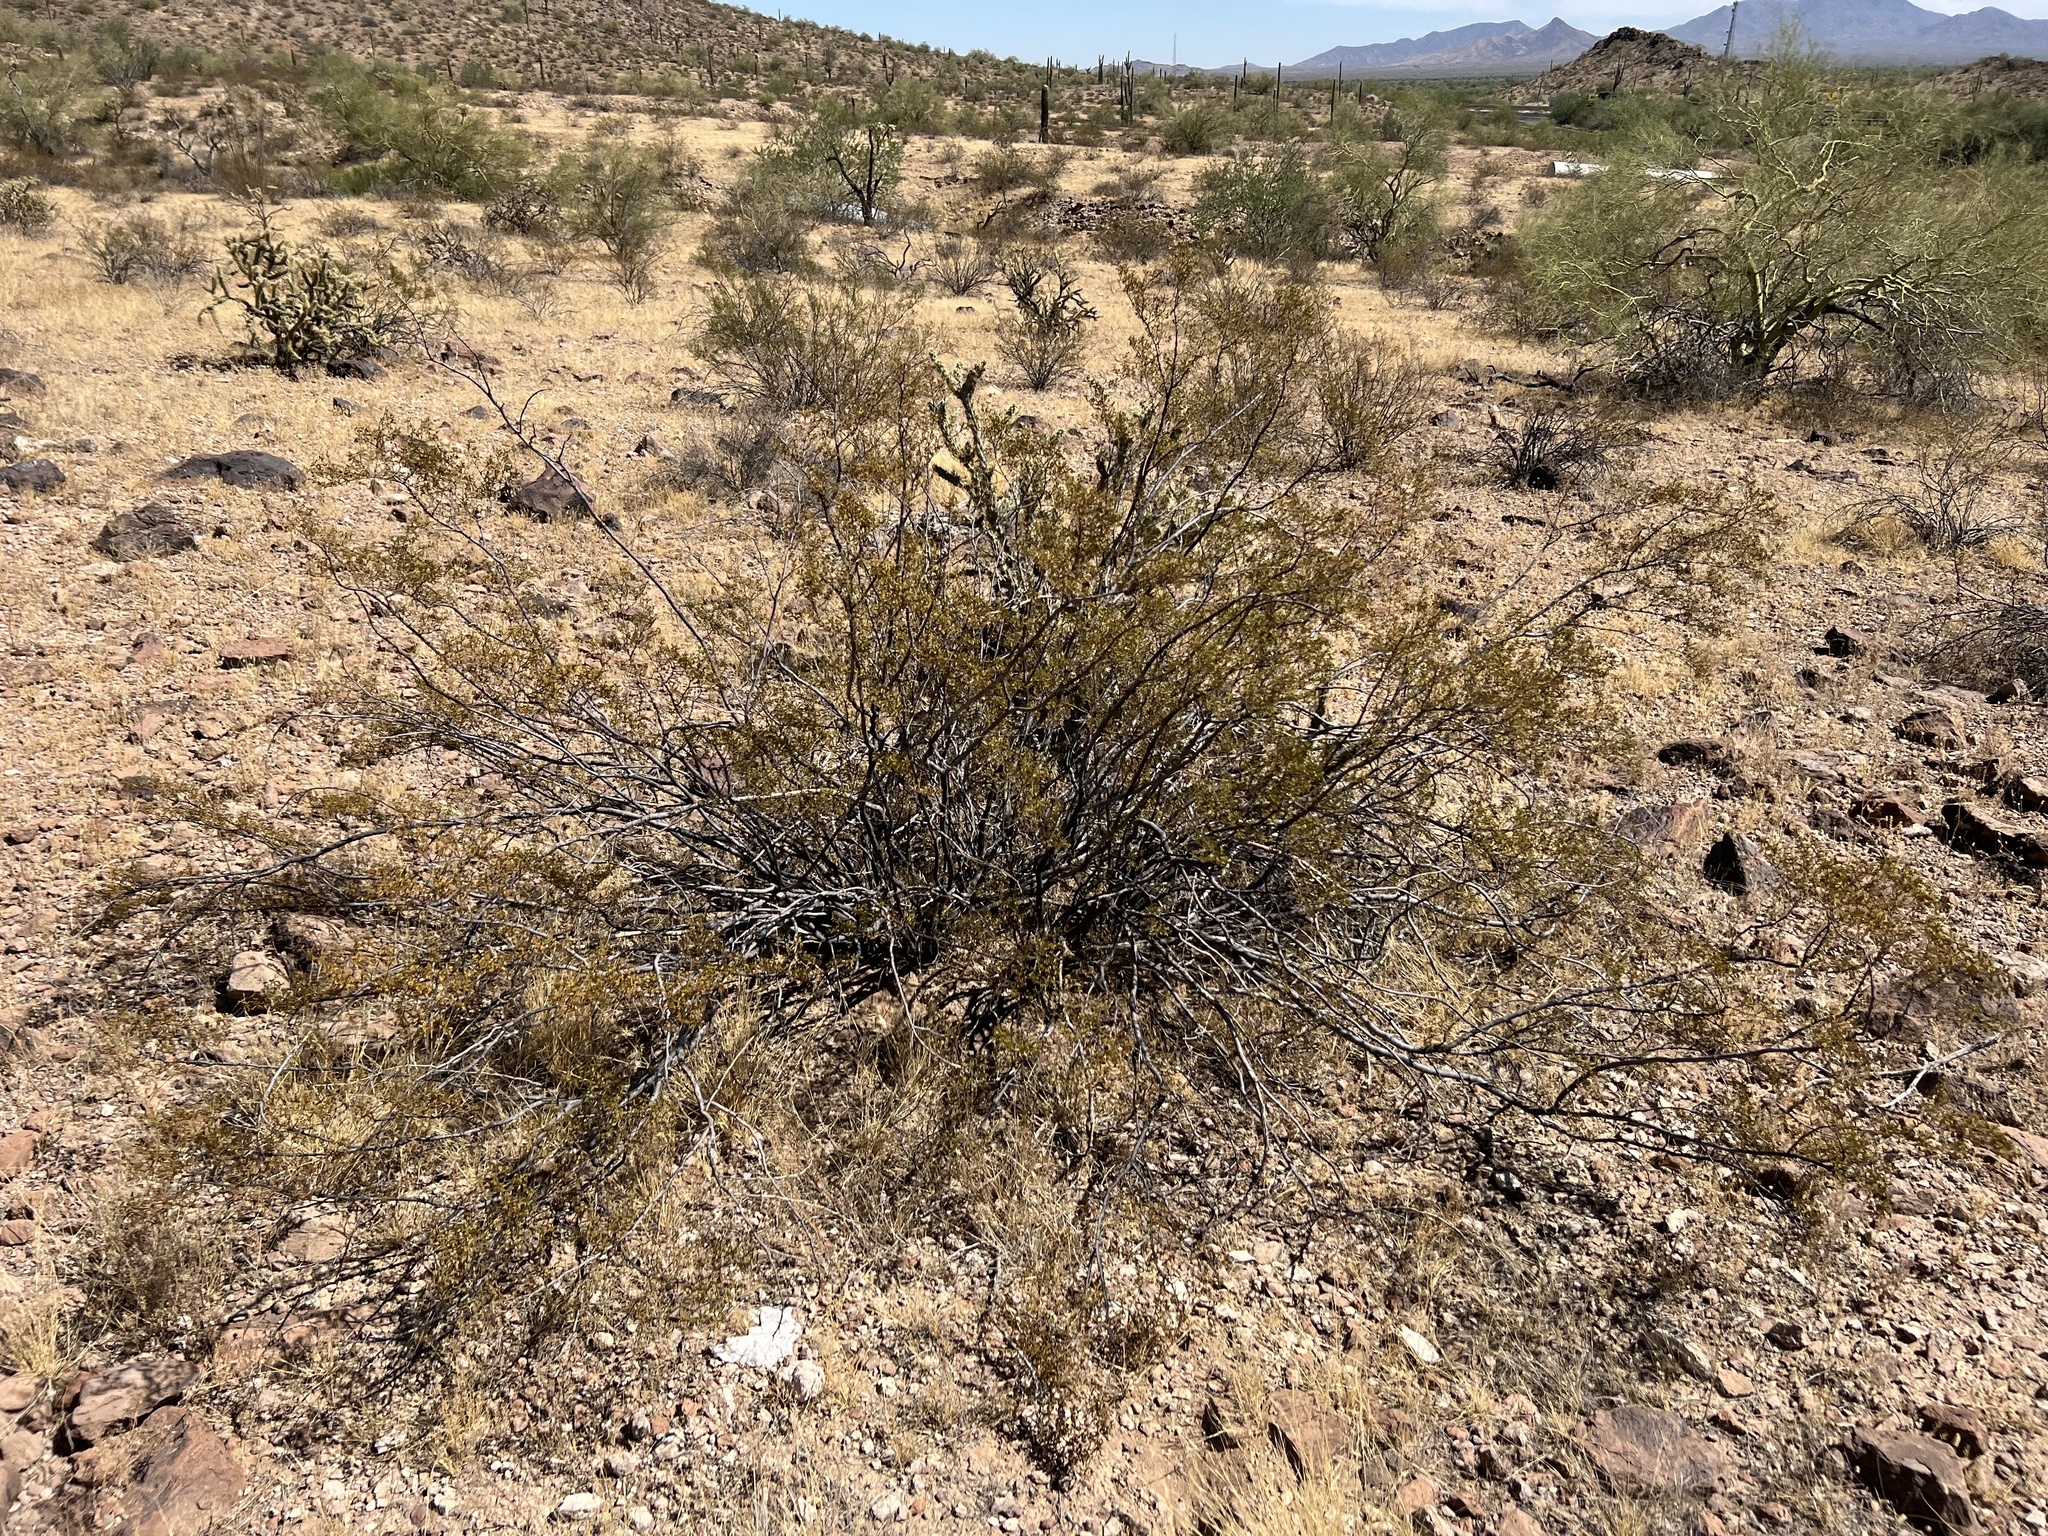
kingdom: Plantae
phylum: Tracheophyta
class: Magnoliopsida
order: Zygophyllales
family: Zygophyllaceae
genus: Larrea
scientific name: Larrea tridentata
